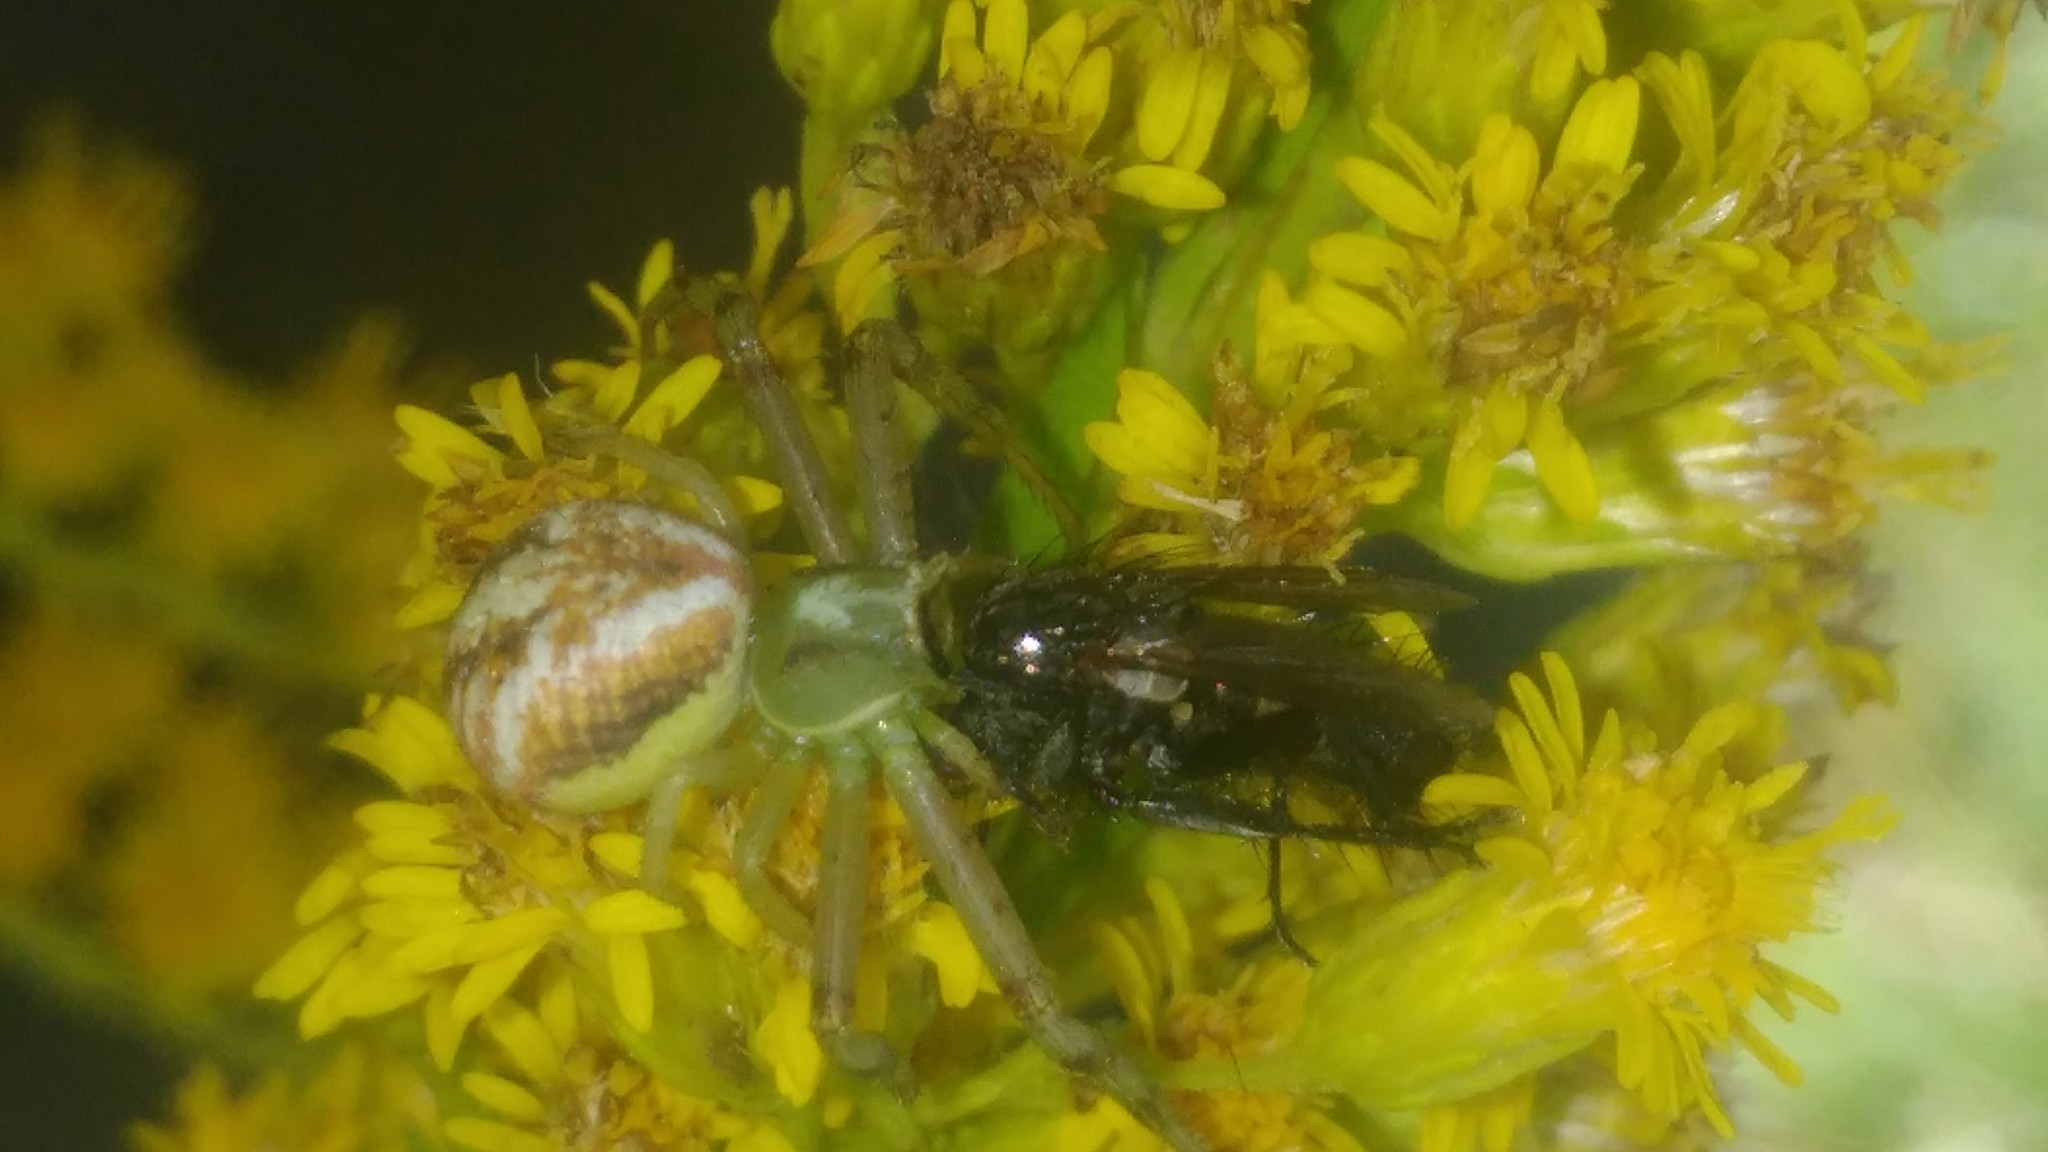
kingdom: Animalia
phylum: Arthropoda
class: Arachnida
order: Araneae
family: Thomisidae
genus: Misumenops
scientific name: Misumenops
